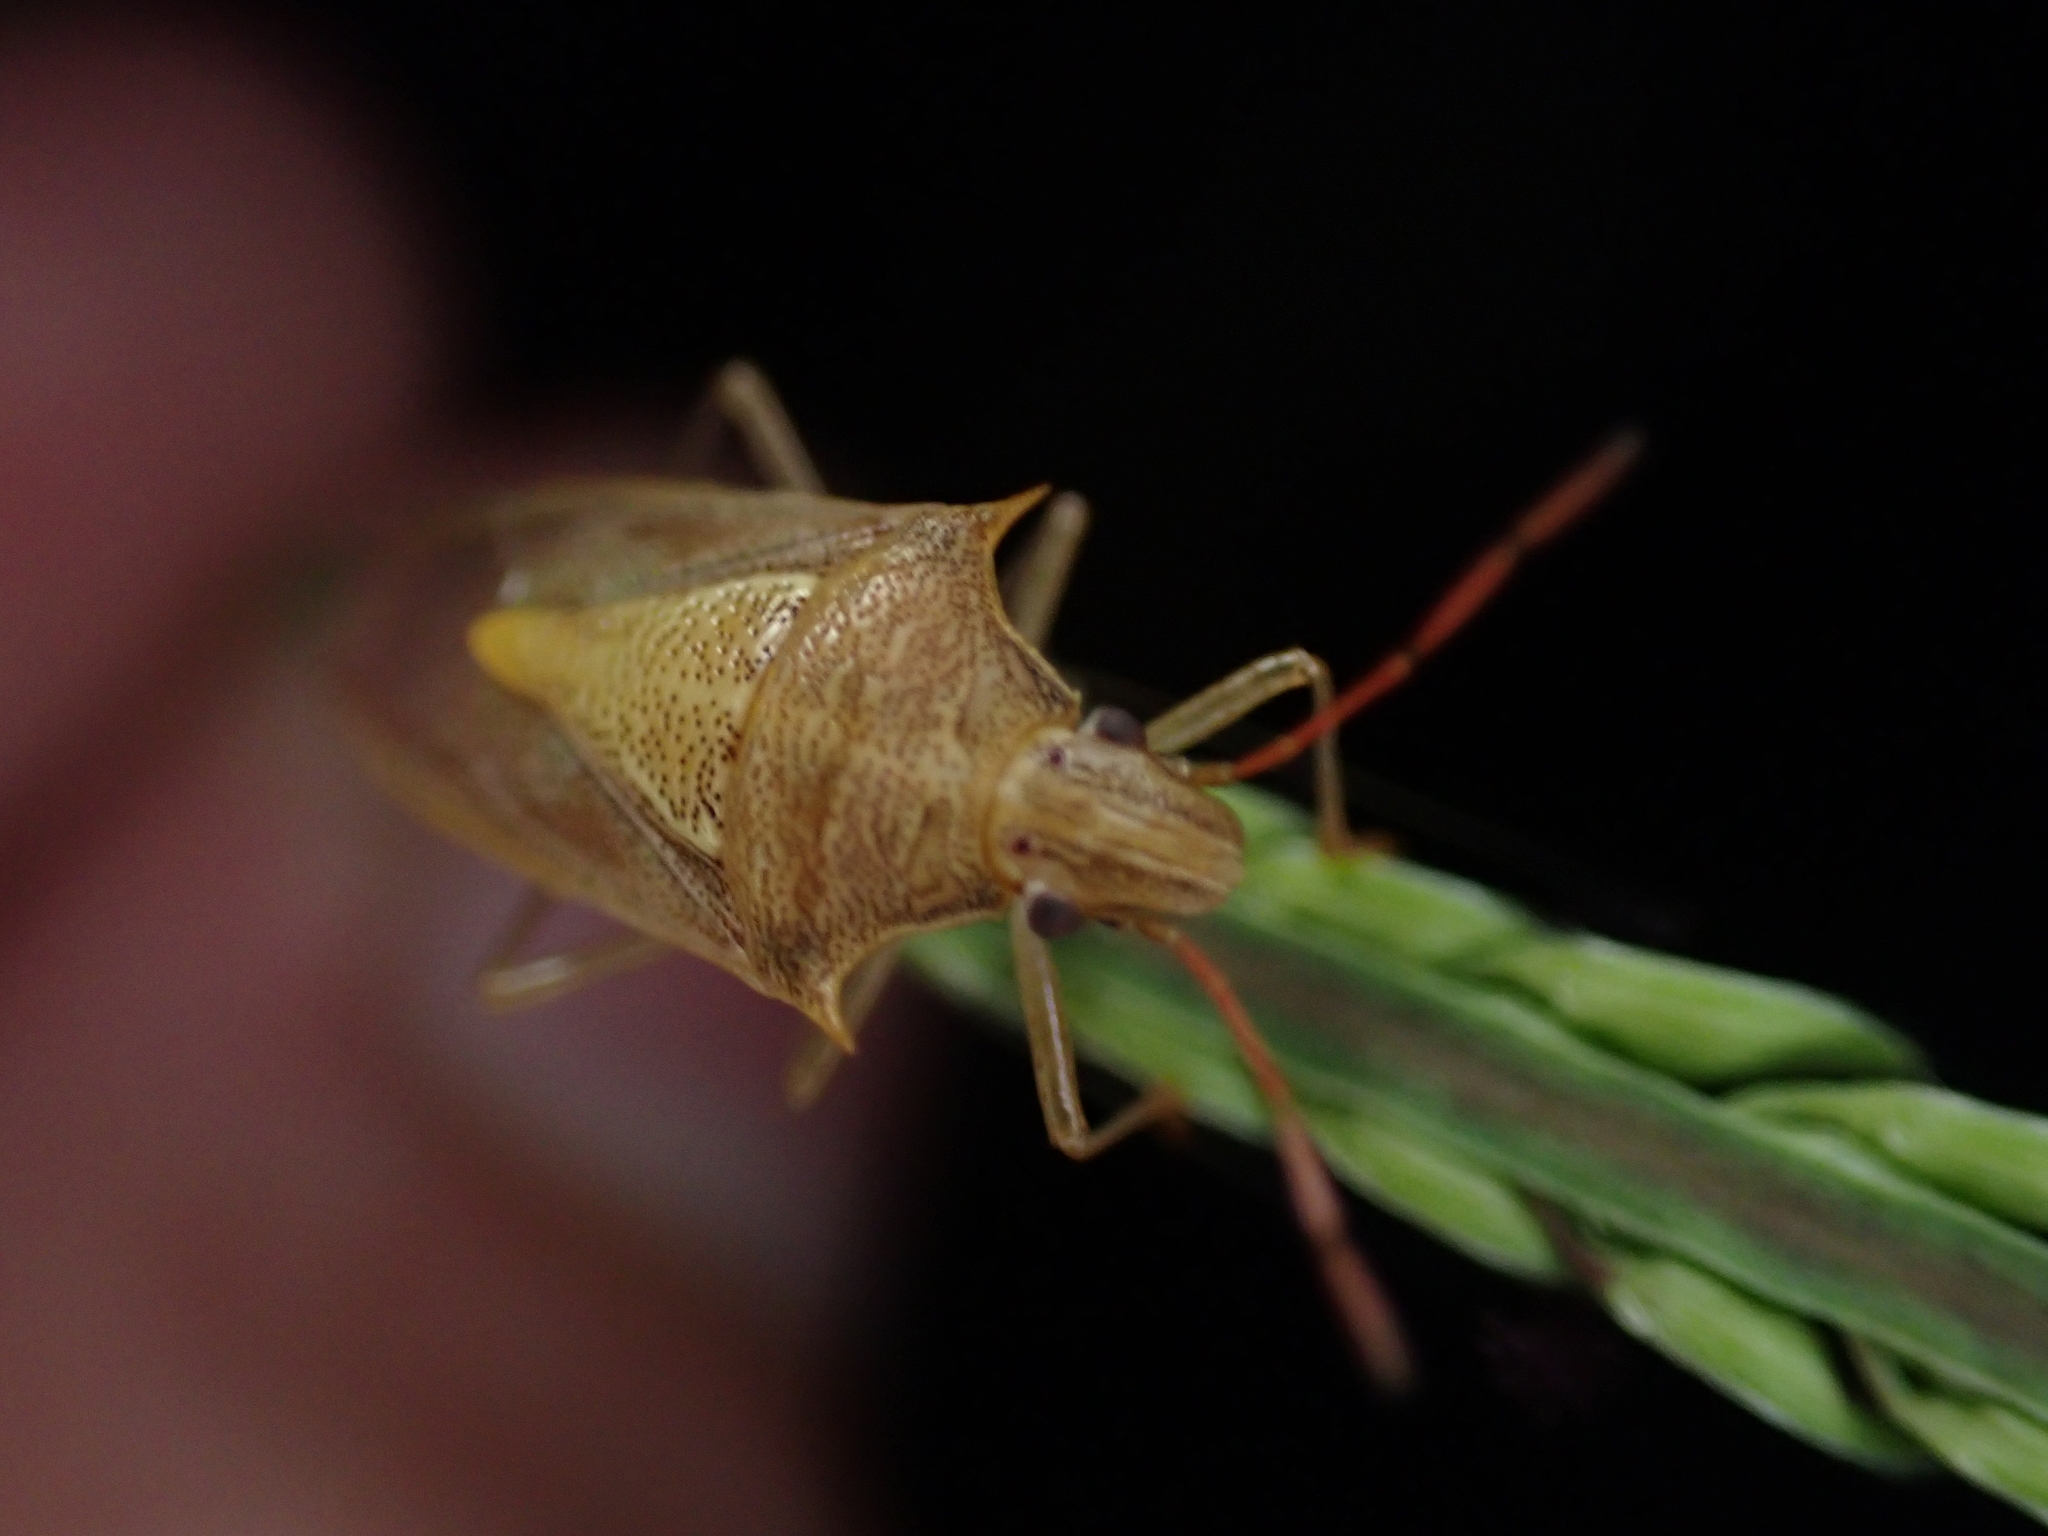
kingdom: Animalia
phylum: Arthropoda
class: Insecta
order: Hemiptera
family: Pentatomidae
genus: Oebalus
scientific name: Oebalus pugnax
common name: Rice stink bug
